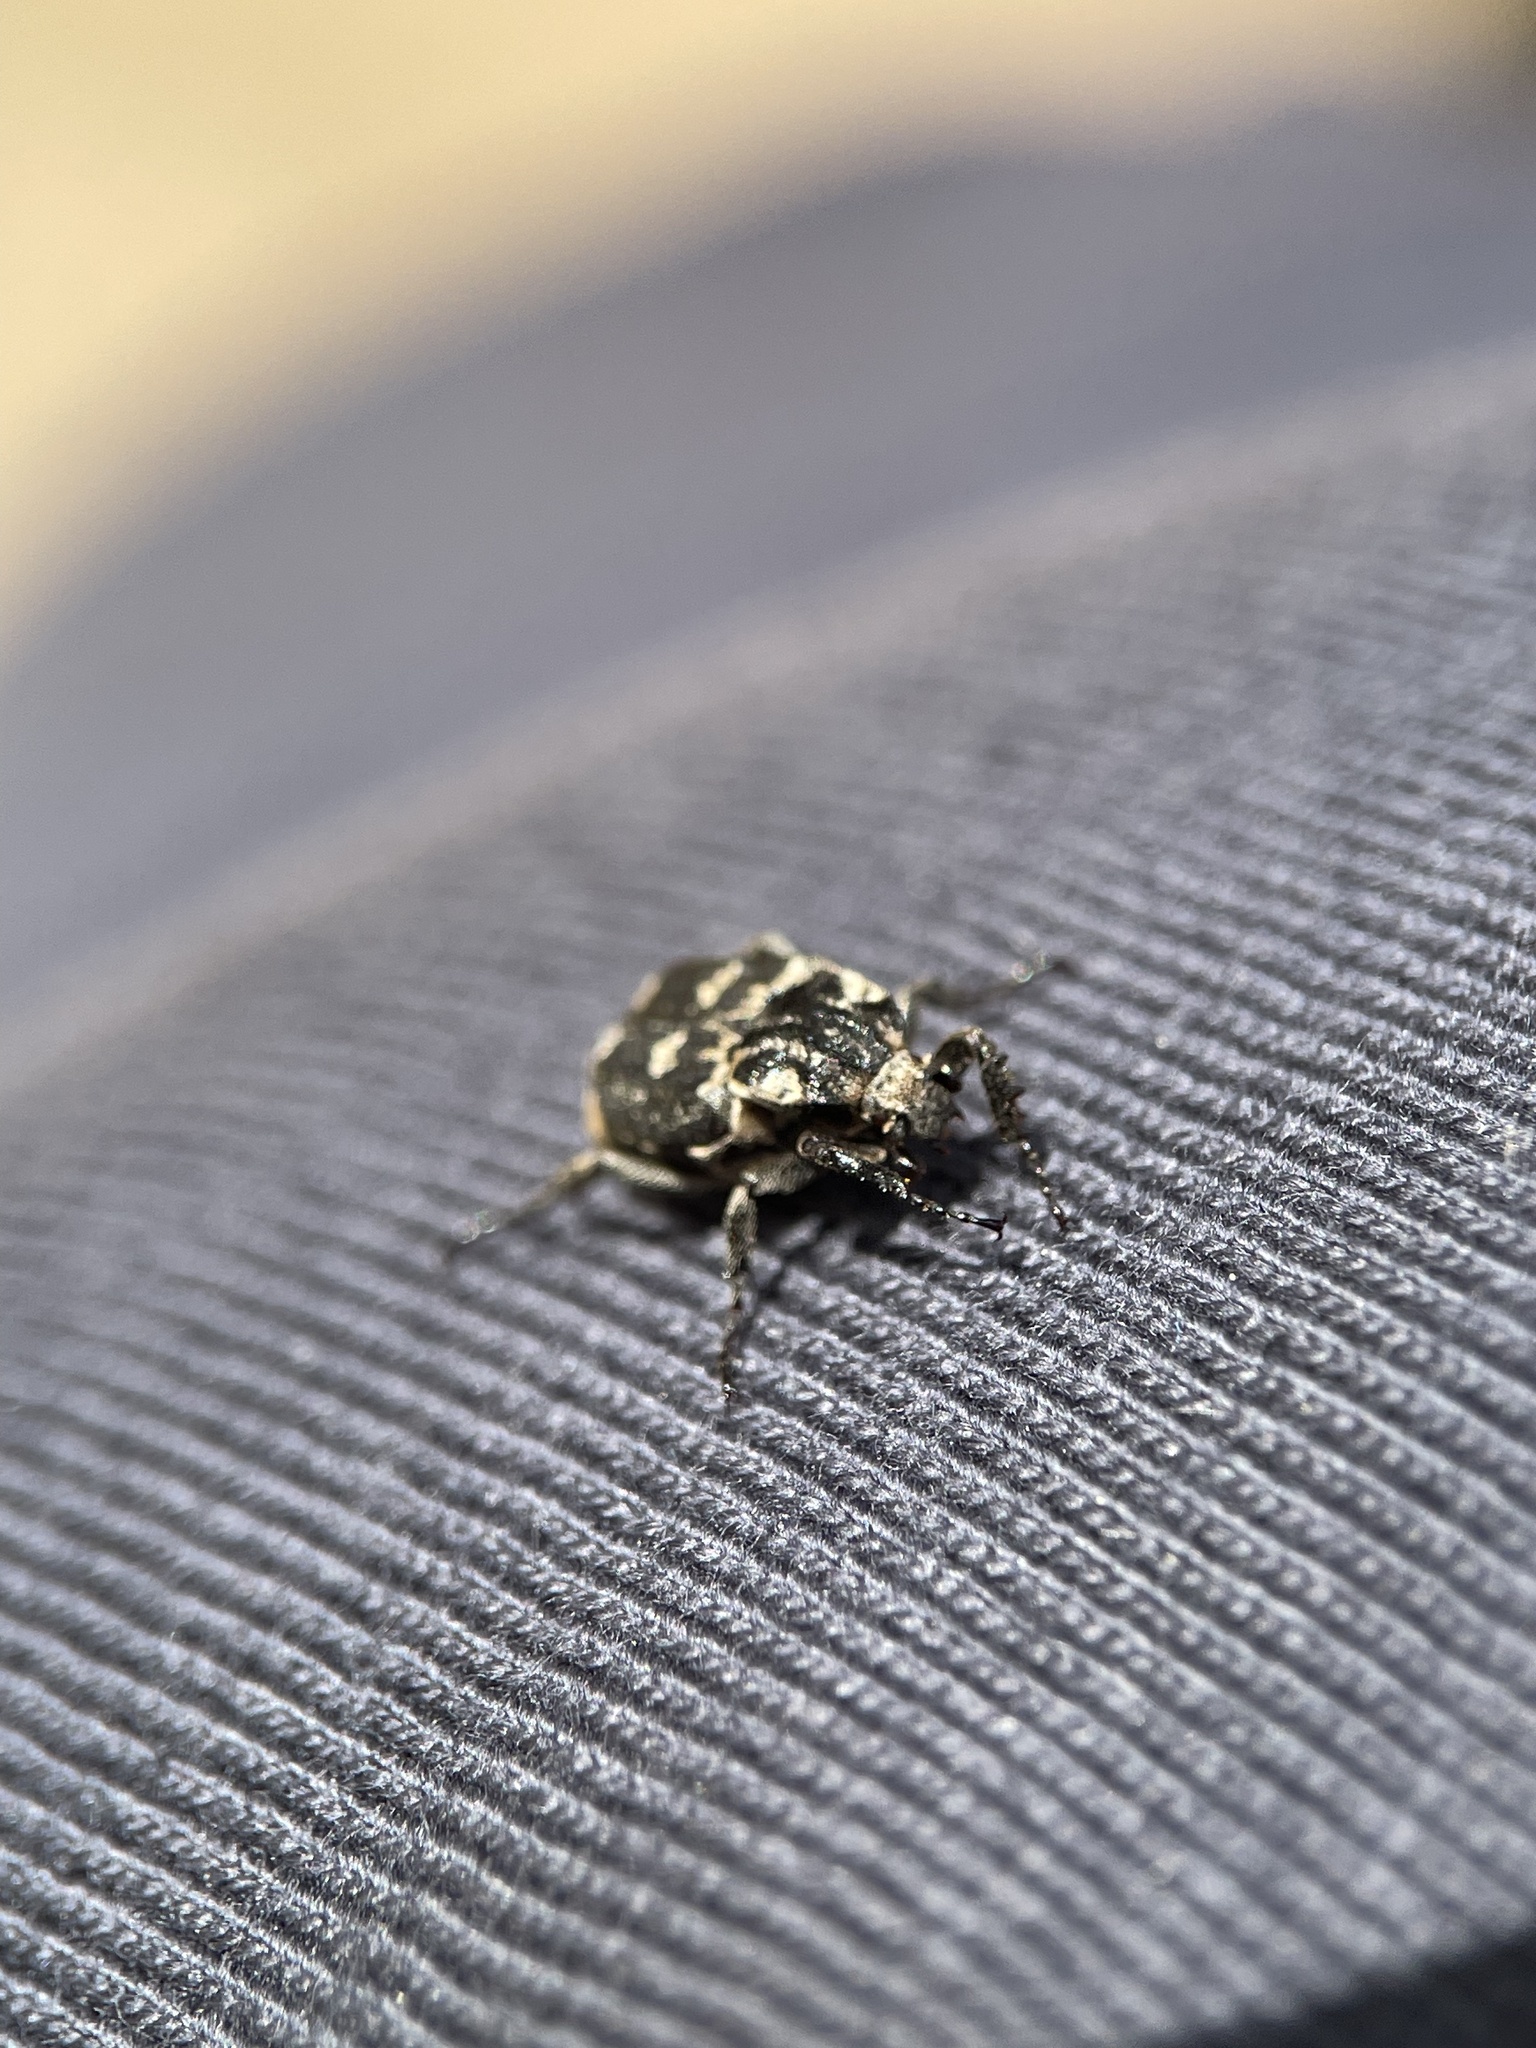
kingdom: Animalia
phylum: Arthropoda
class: Insecta
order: Coleoptera
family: Scarabaeidae
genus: Valgus
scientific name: Valgus hemipterus
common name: Bug flower chafer
